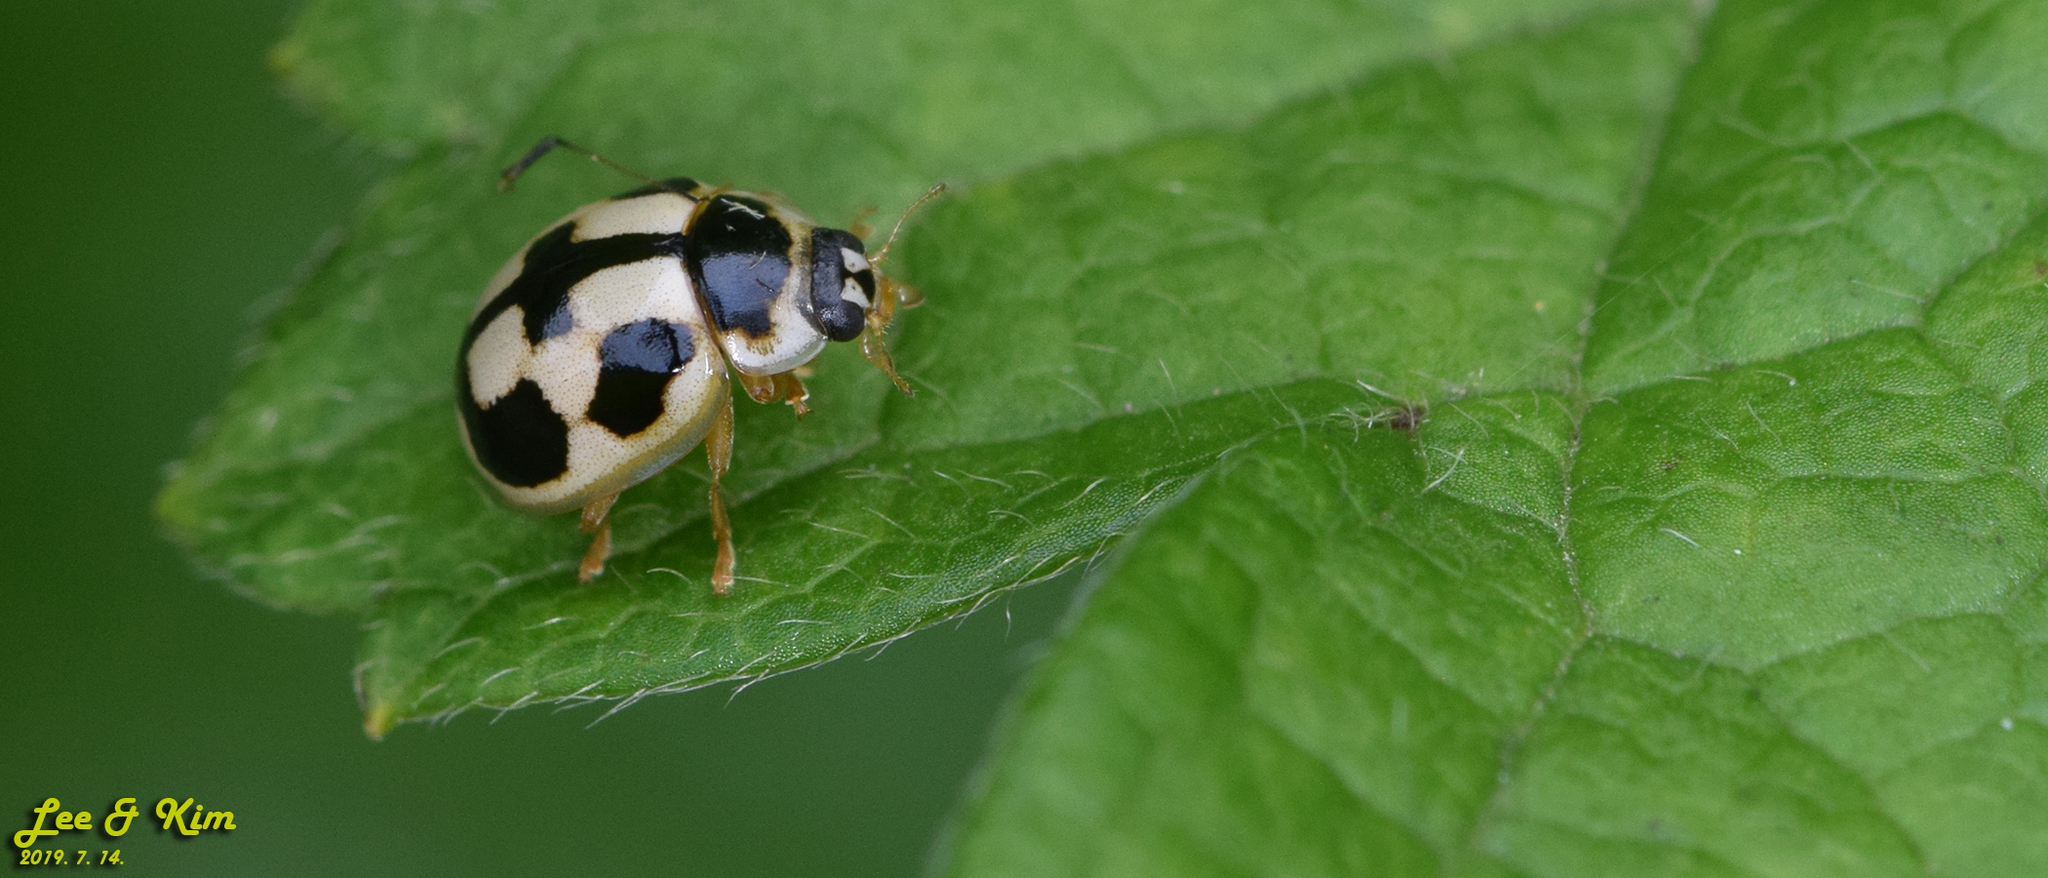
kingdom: Animalia
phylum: Arthropoda
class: Insecta
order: Coleoptera
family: Coccinellidae
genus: Propylea
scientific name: Propylea japonica
